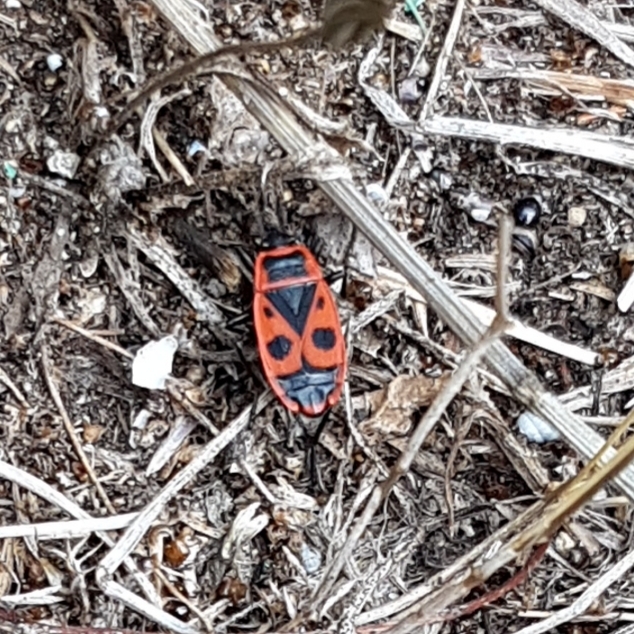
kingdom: Animalia
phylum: Arthropoda
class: Insecta
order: Hemiptera
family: Pyrrhocoridae
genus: Pyrrhocoris
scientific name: Pyrrhocoris apterus
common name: Firebug
